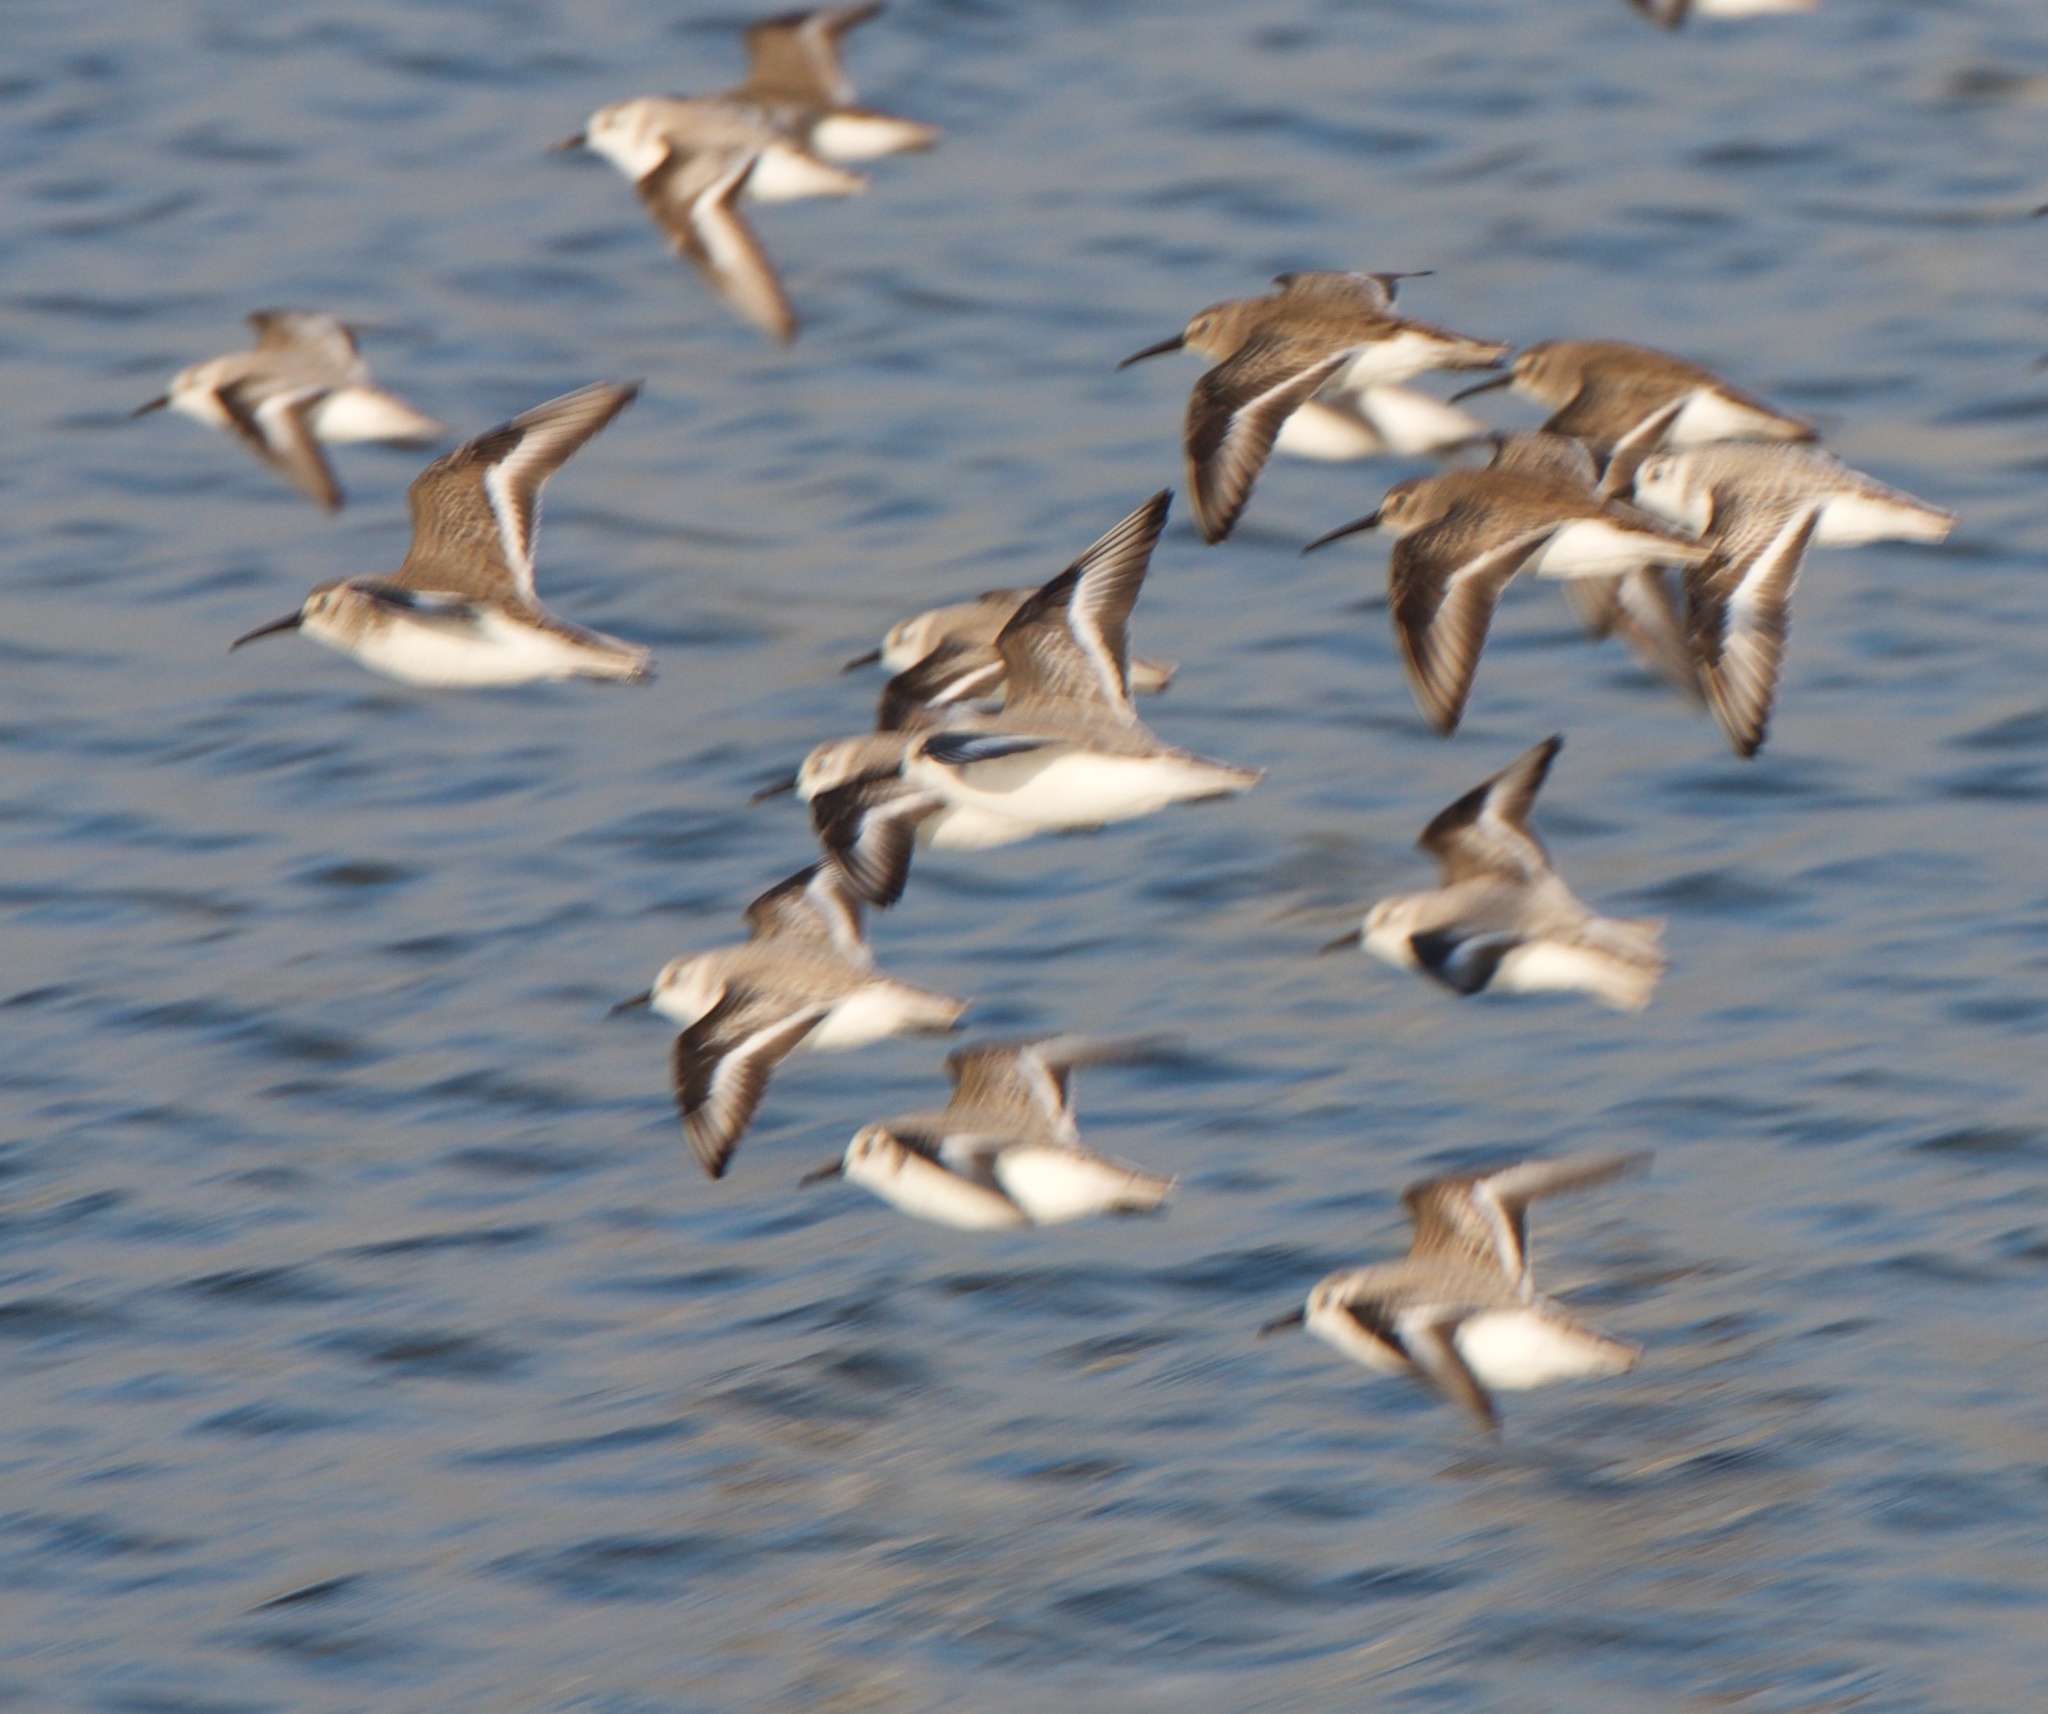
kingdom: Animalia
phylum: Chordata
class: Aves
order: Charadriiformes
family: Scolopacidae
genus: Calidris
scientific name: Calidris alba
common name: Sanderling
